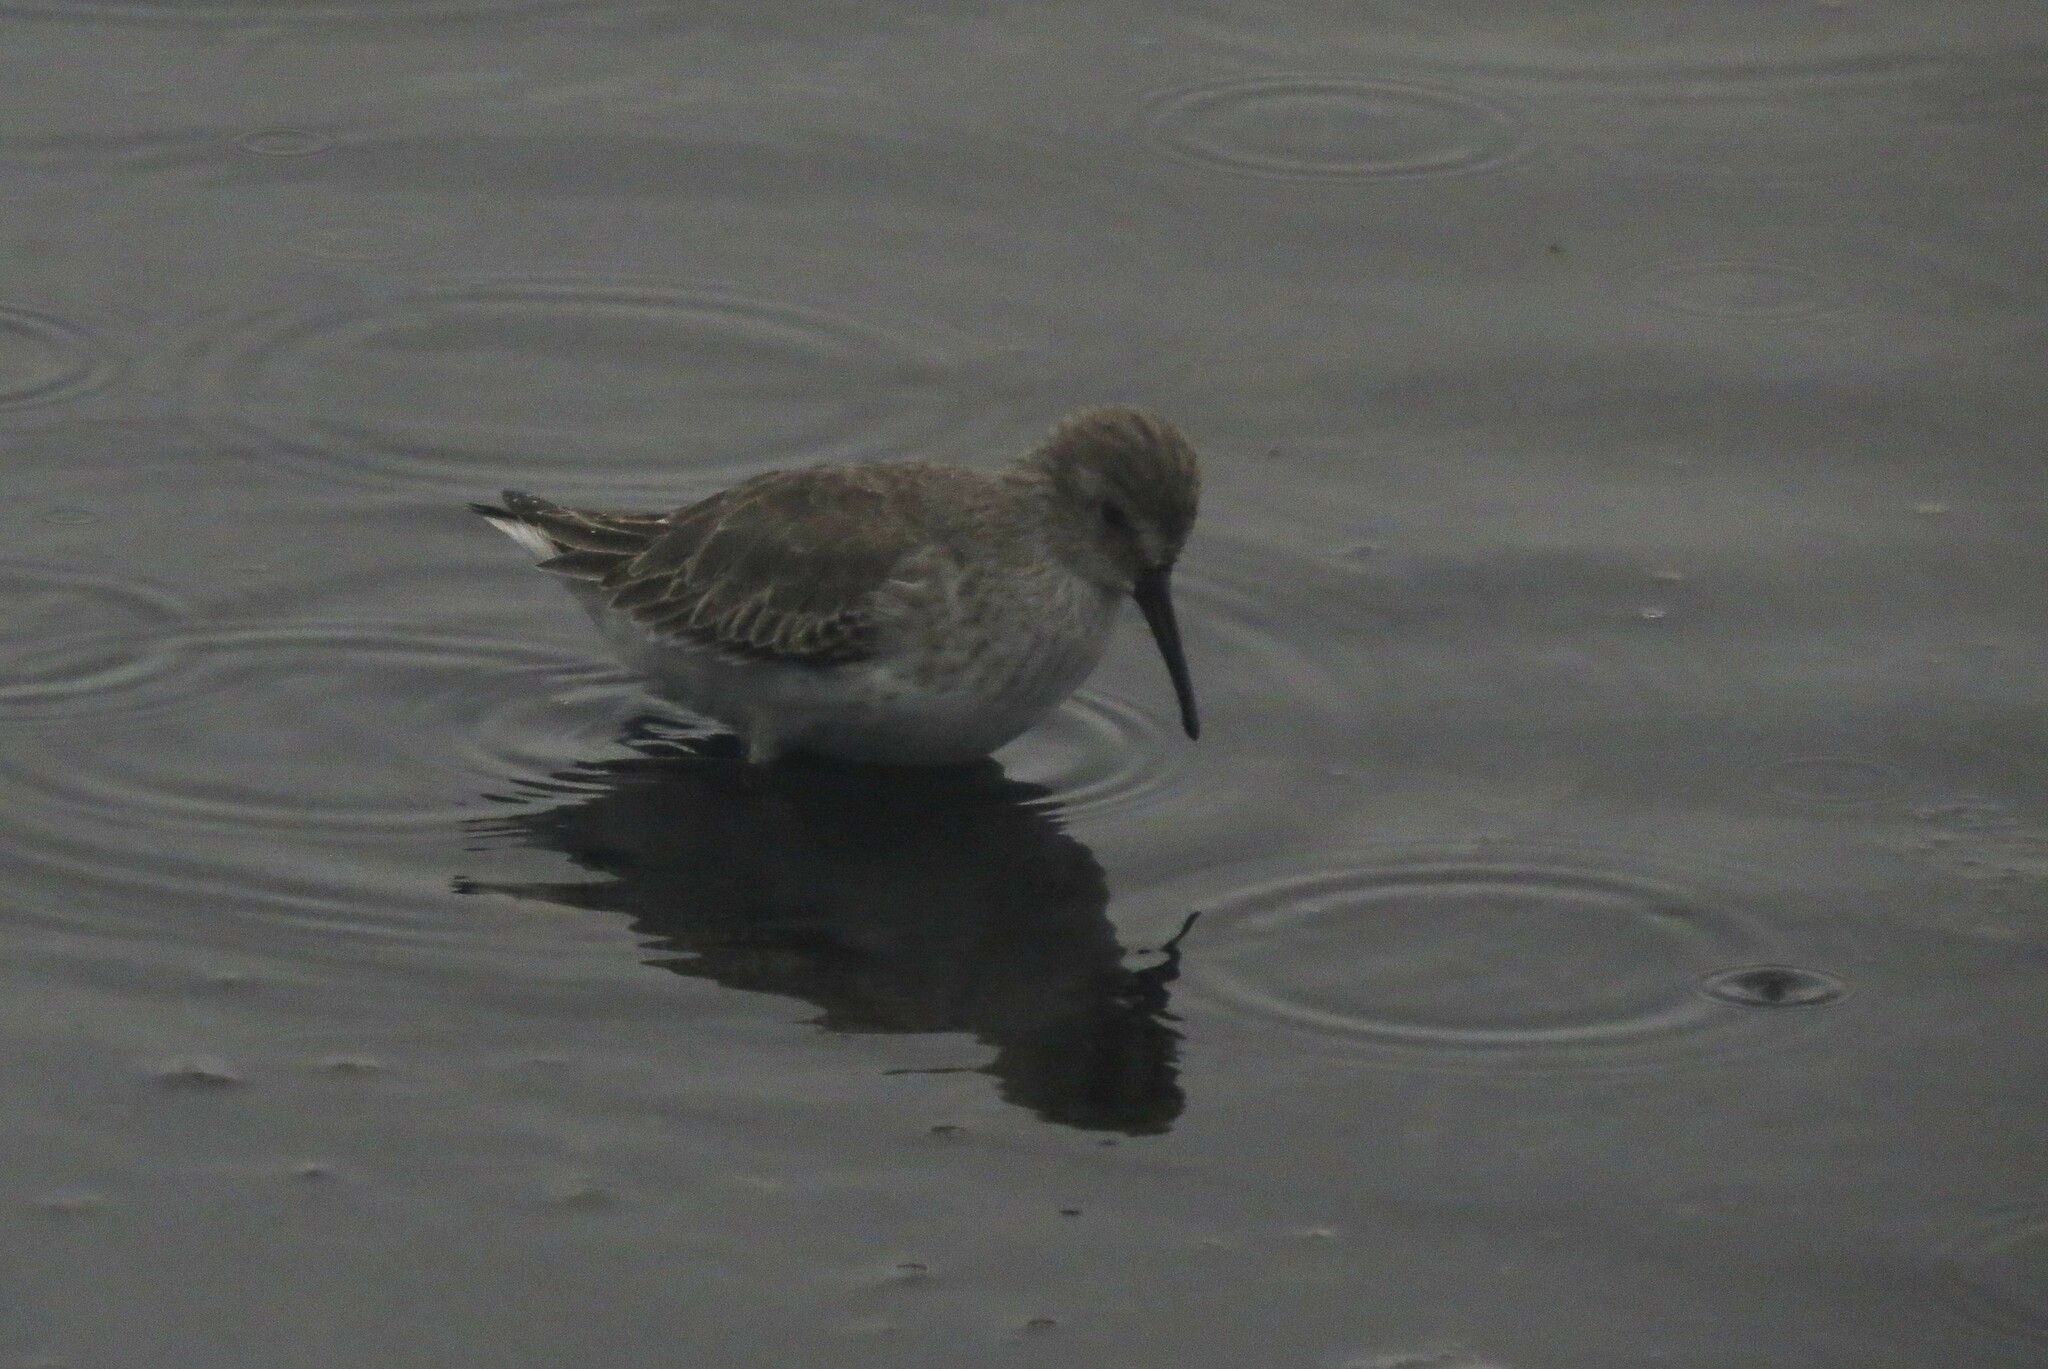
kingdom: Animalia
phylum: Chordata
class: Aves
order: Charadriiformes
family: Scolopacidae
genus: Calidris
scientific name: Calidris alpina
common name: Dunlin
